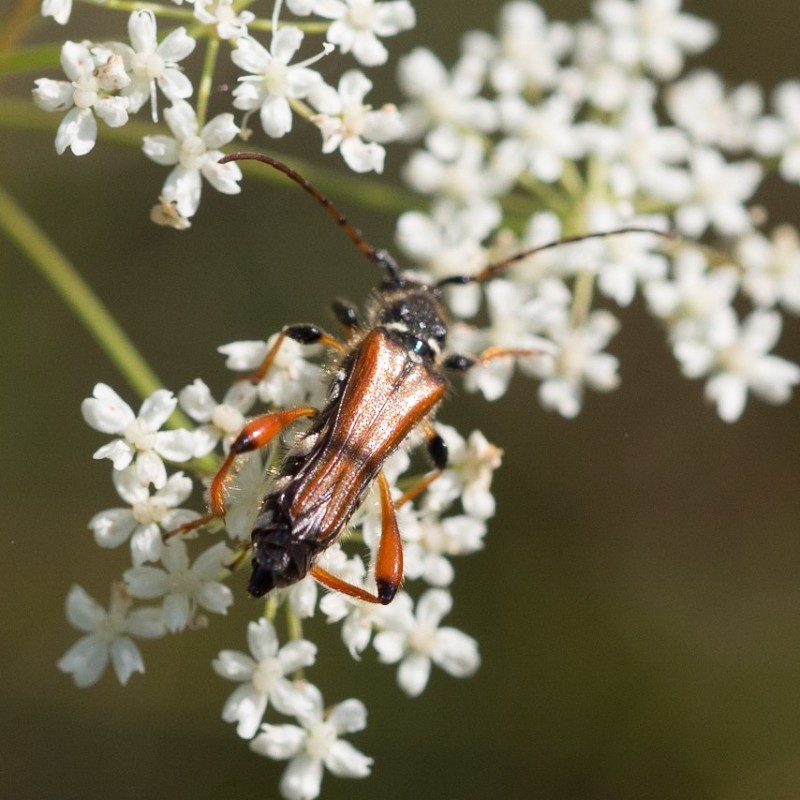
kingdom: Animalia
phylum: Arthropoda
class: Insecta
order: Coleoptera
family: Cerambycidae
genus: Stenopterus
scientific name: Stenopterus rufus
